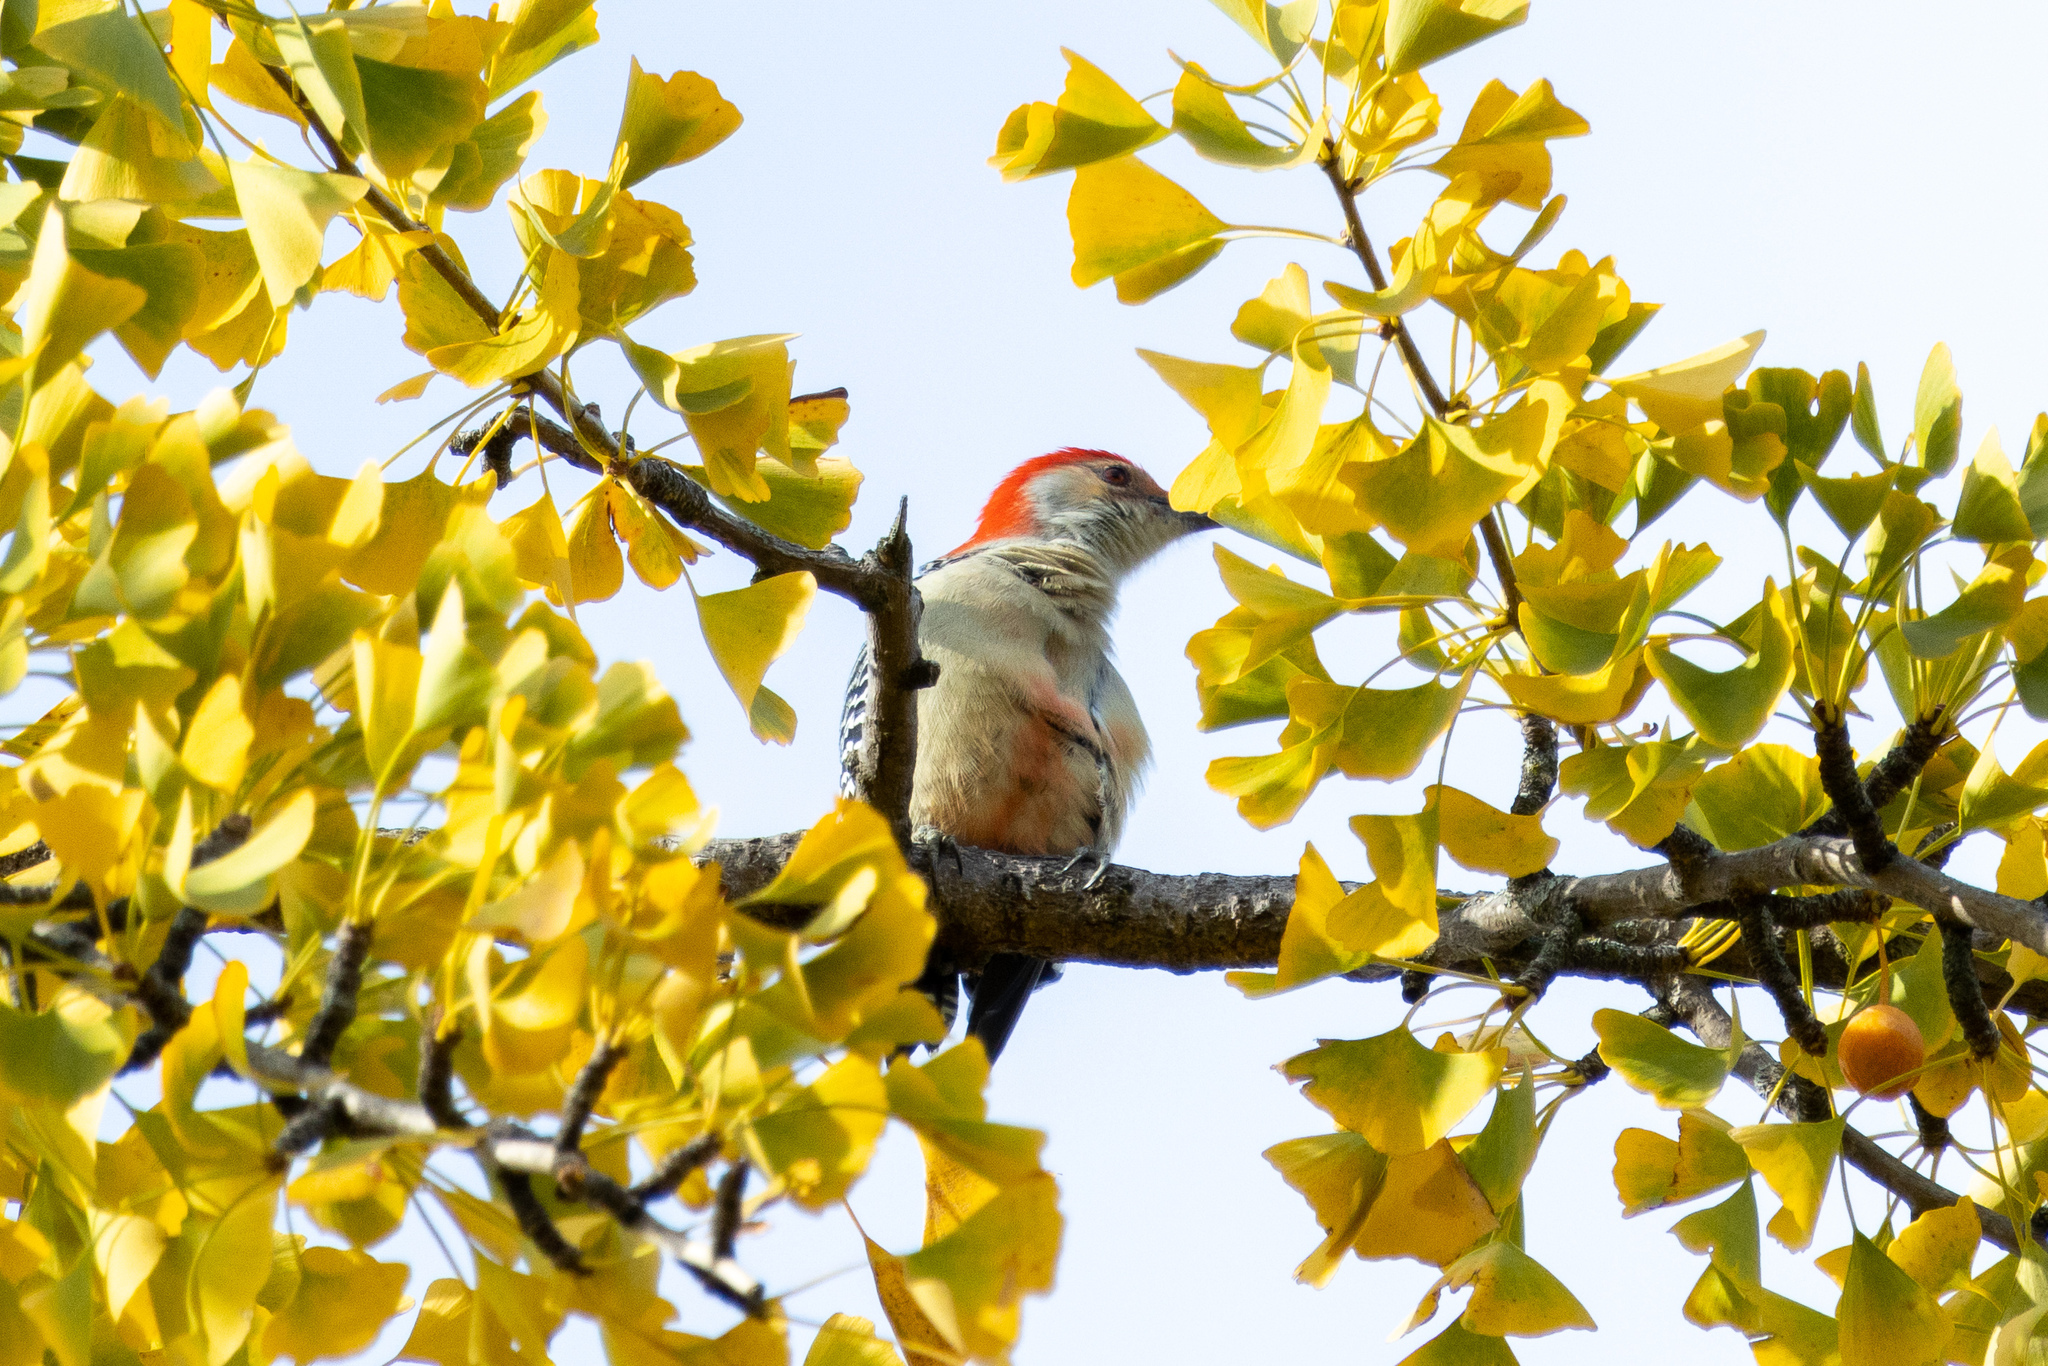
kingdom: Animalia
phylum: Chordata
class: Aves
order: Piciformes
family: Picidae
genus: Melanerpes
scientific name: Melanerpes carolinus
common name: Red-bellied woodpecker
